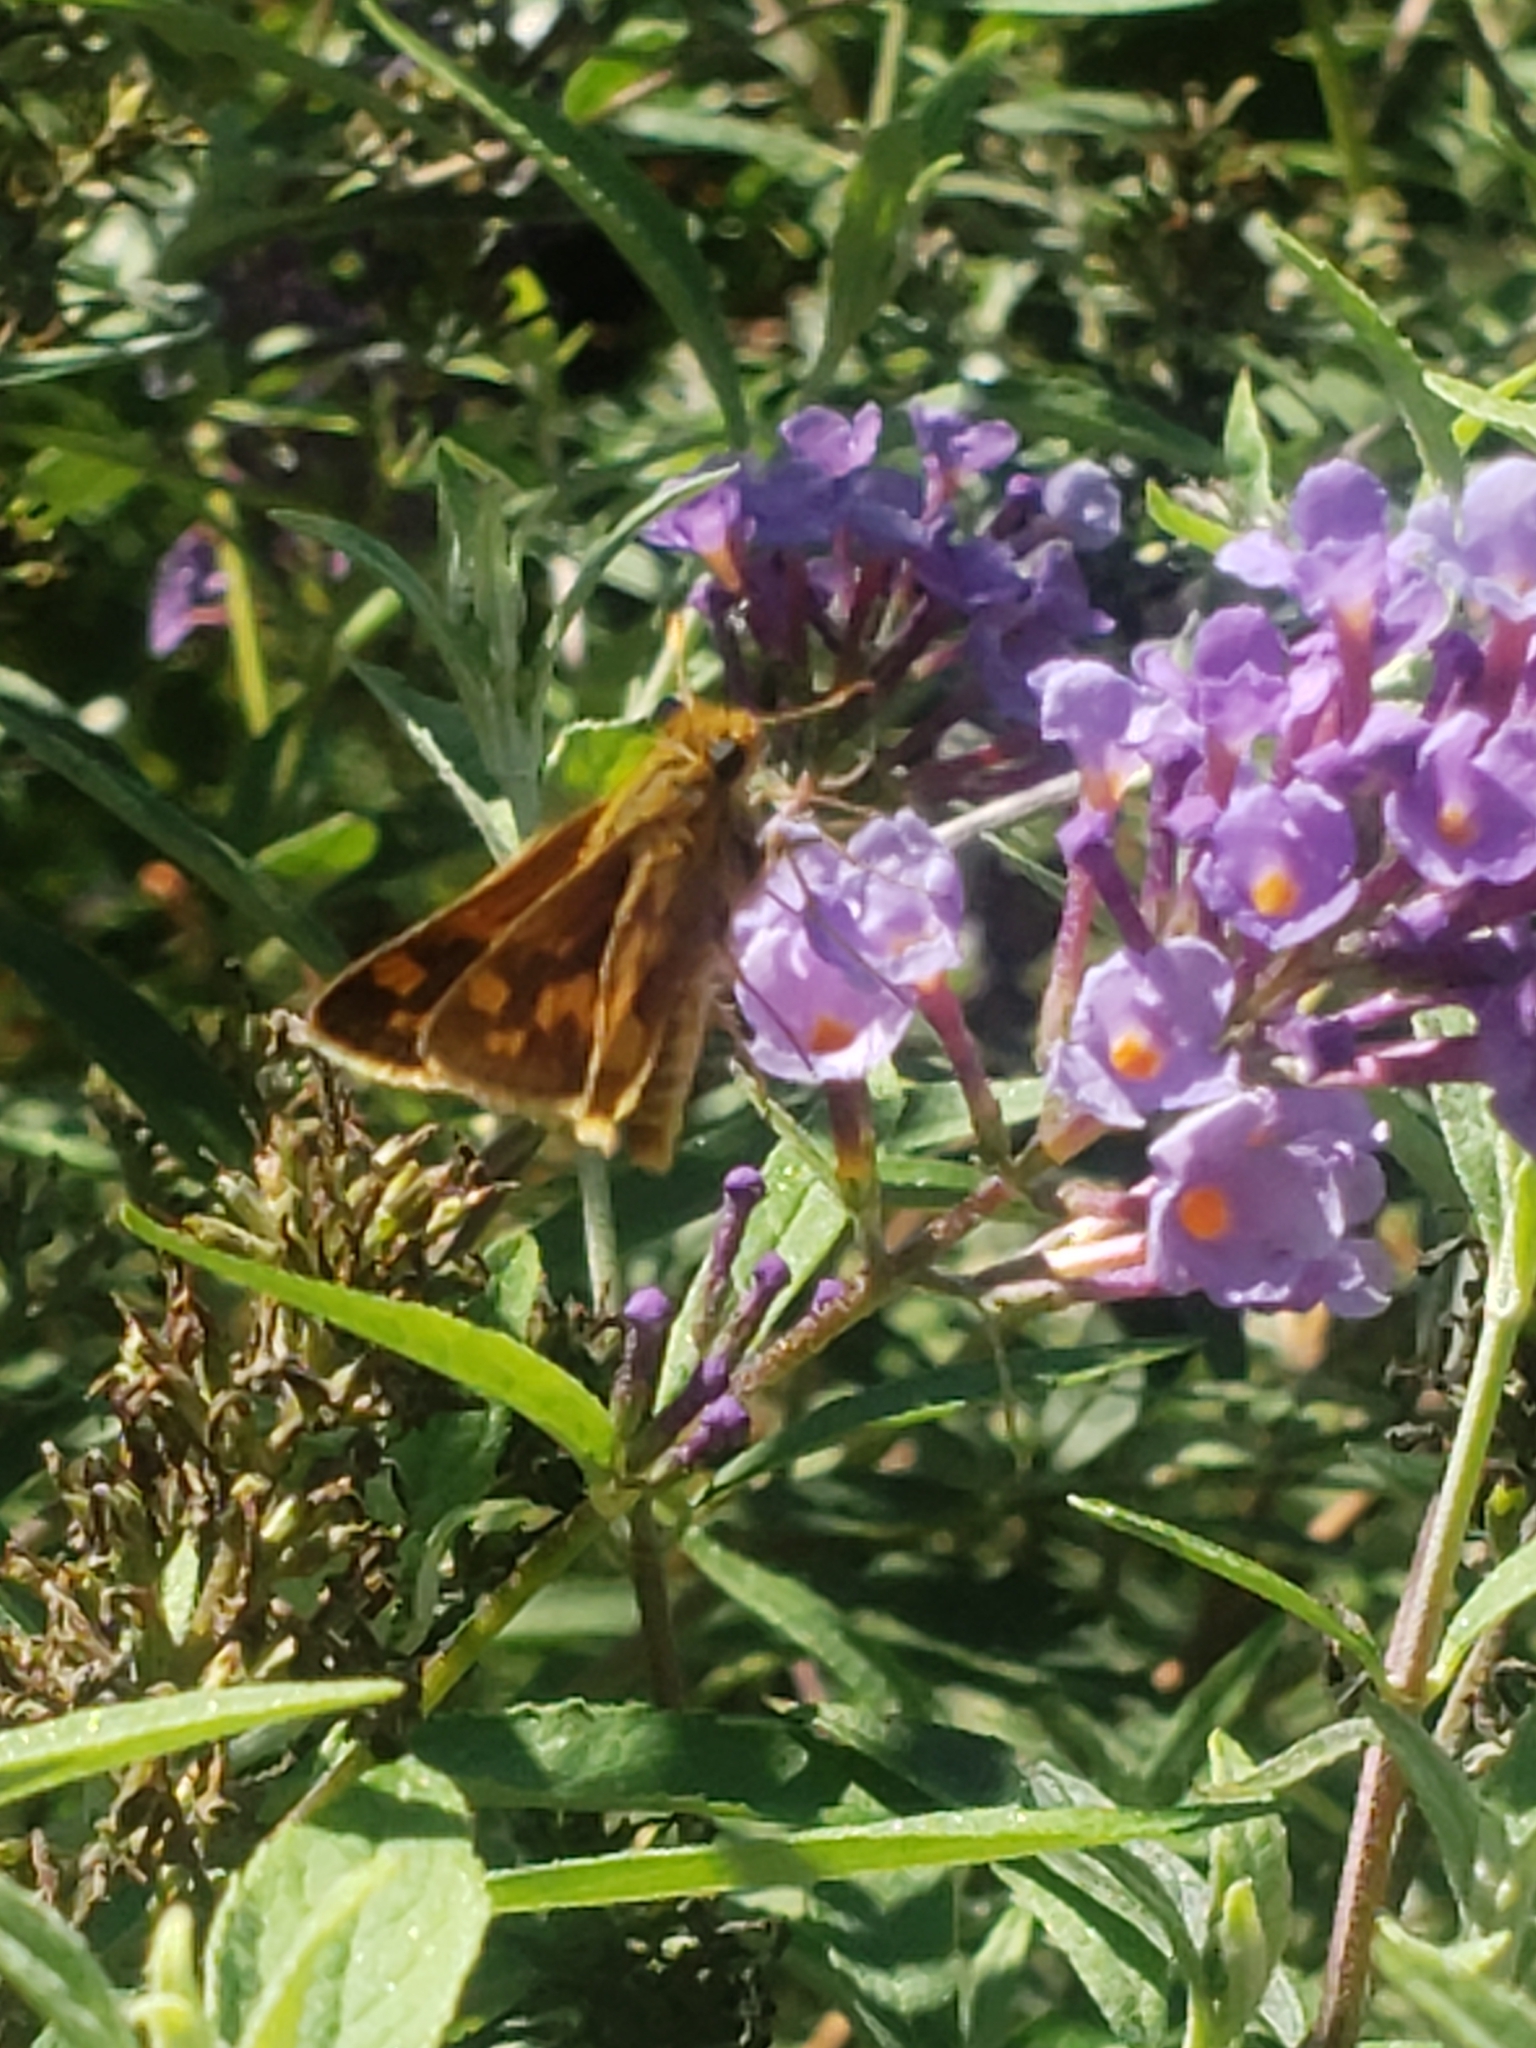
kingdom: Animalia
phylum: Arthropoda
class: Insecta
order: Lepidoptera
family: Hesperiidae
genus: Polites
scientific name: Polites coras
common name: Peck's skipper
